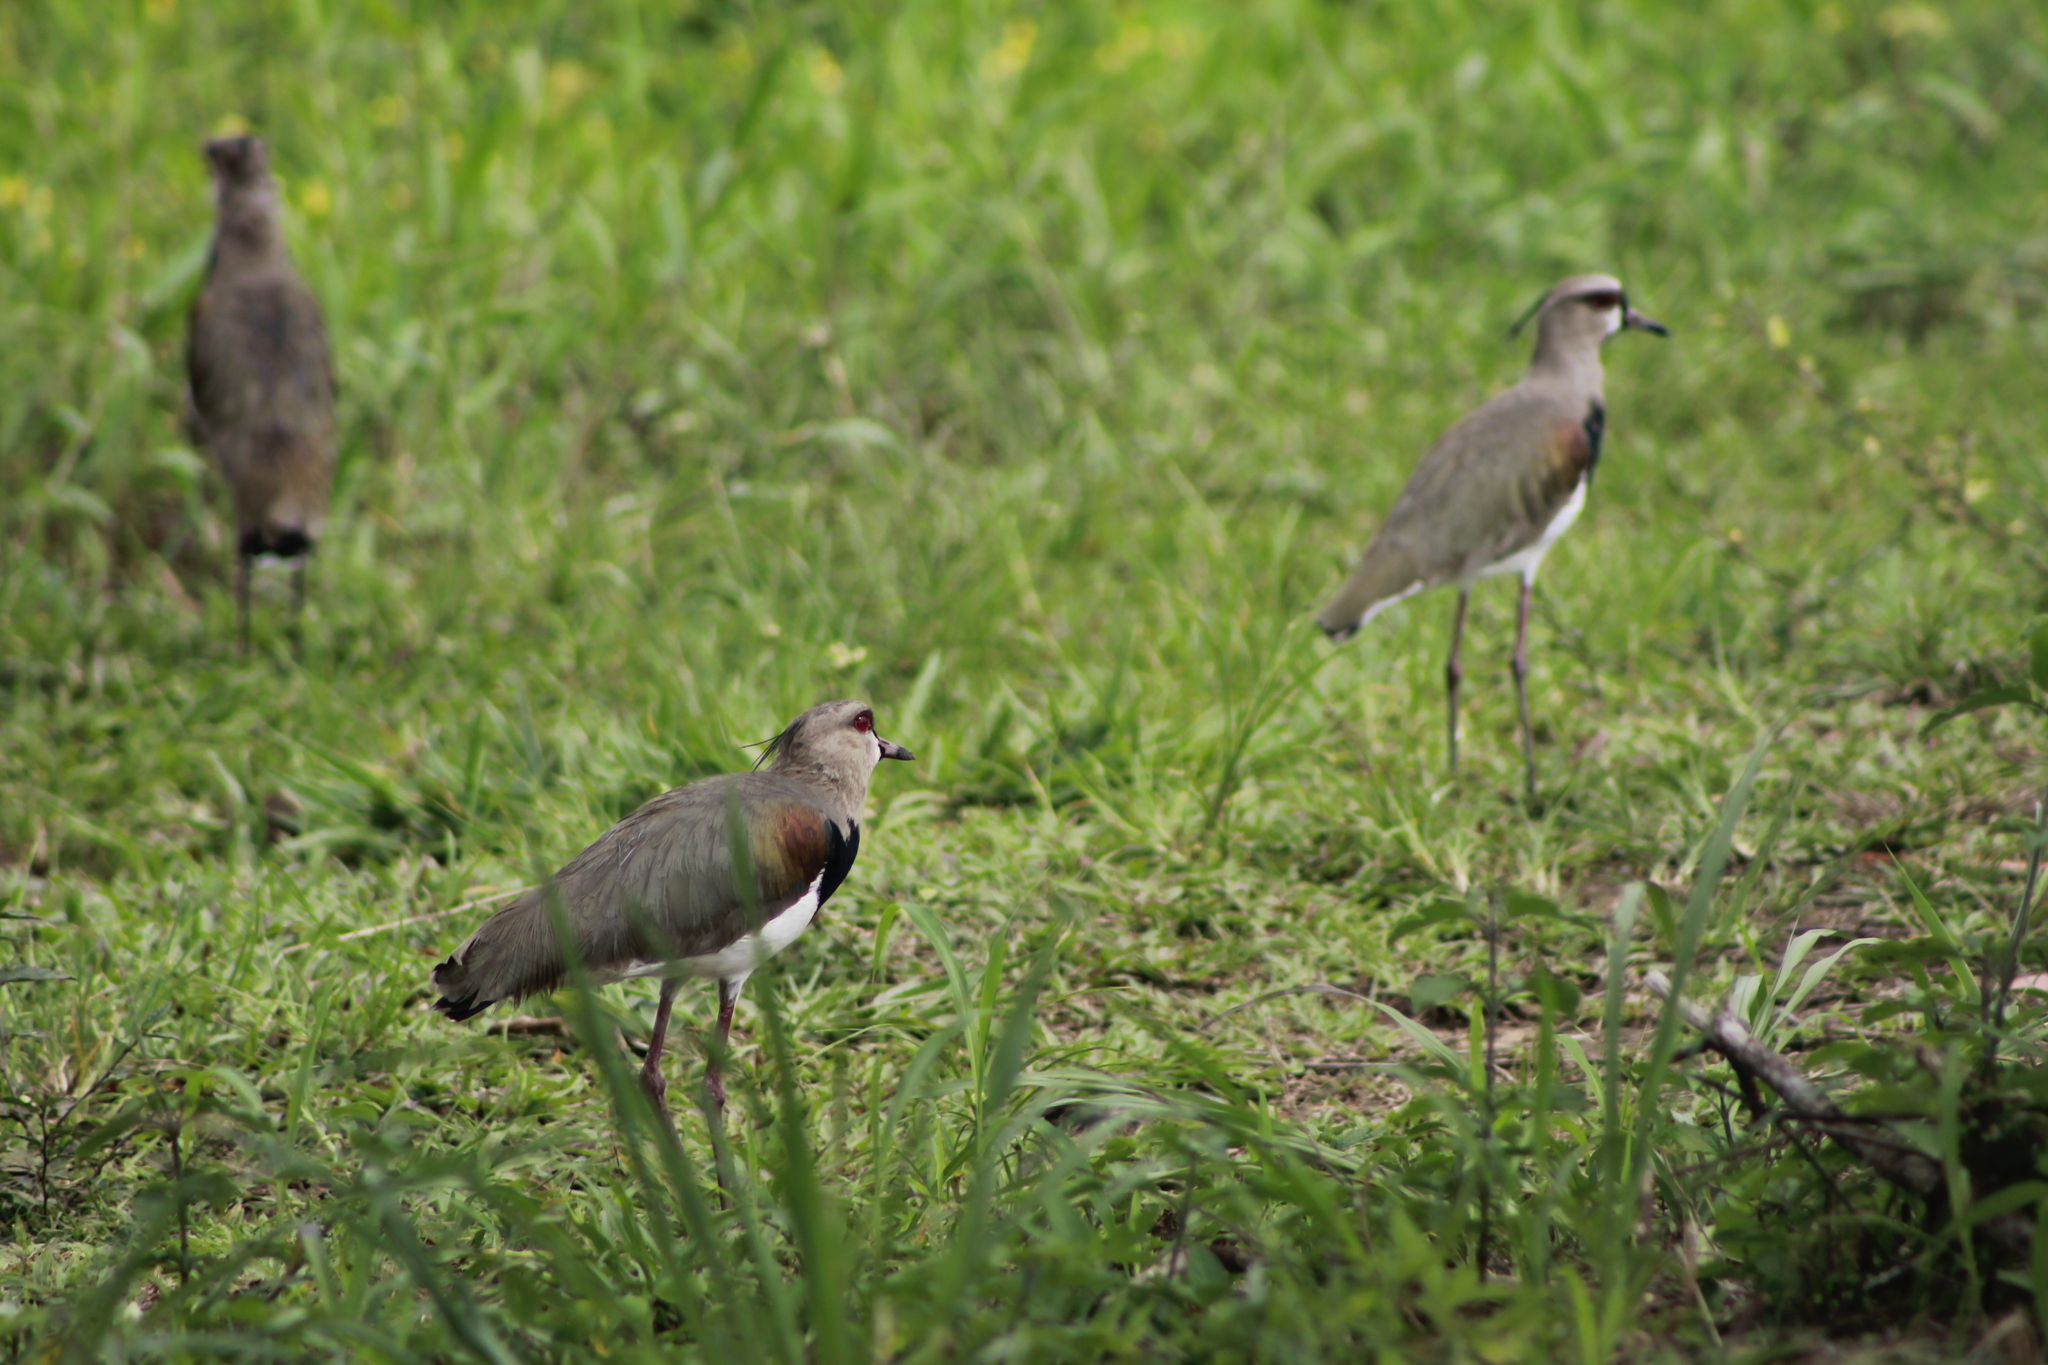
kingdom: Animalia
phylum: Chordata
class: Aves
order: Charadriiformes
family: Charadriidae
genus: Vanellus
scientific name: Vanellus chilensis
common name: Southern lapwing
